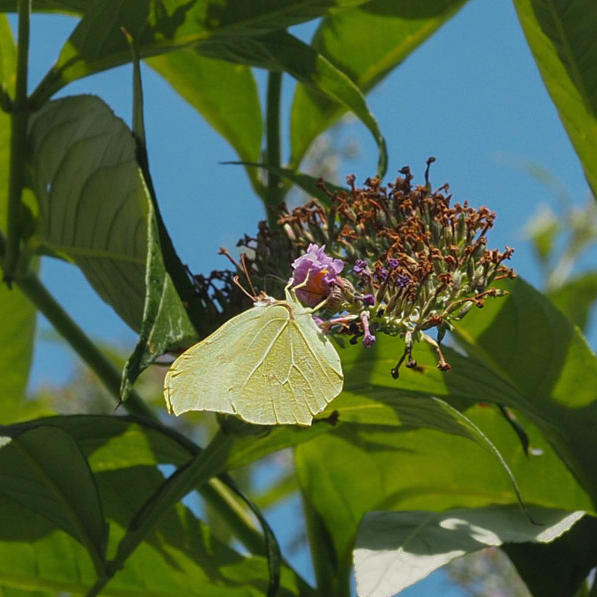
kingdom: Animalia
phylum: Arthropoda
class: Insecta
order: Lepidoptera
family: Pieridae
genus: Gonepteryx
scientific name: Gonepteryx rhamni
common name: Brimstone
